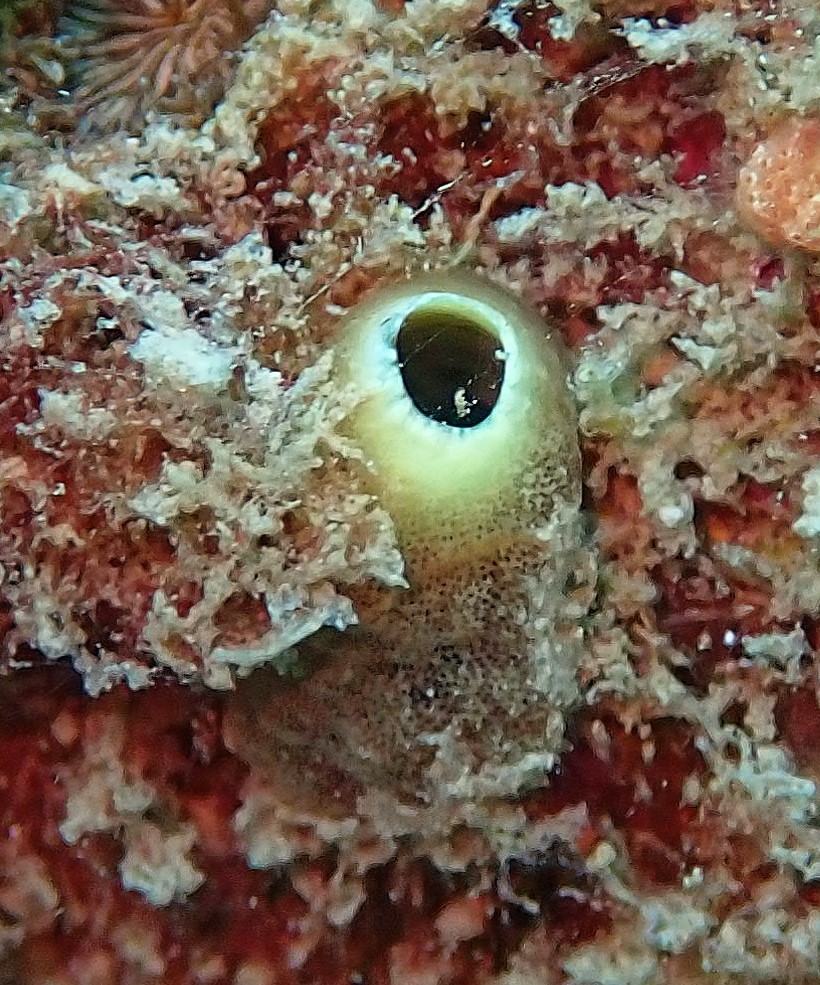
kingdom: Animalia
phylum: Porifera
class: Demospongiae
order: Clionaida
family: Clionaidae
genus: Cliona
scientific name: Cliona viridis
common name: Green boring sponge
